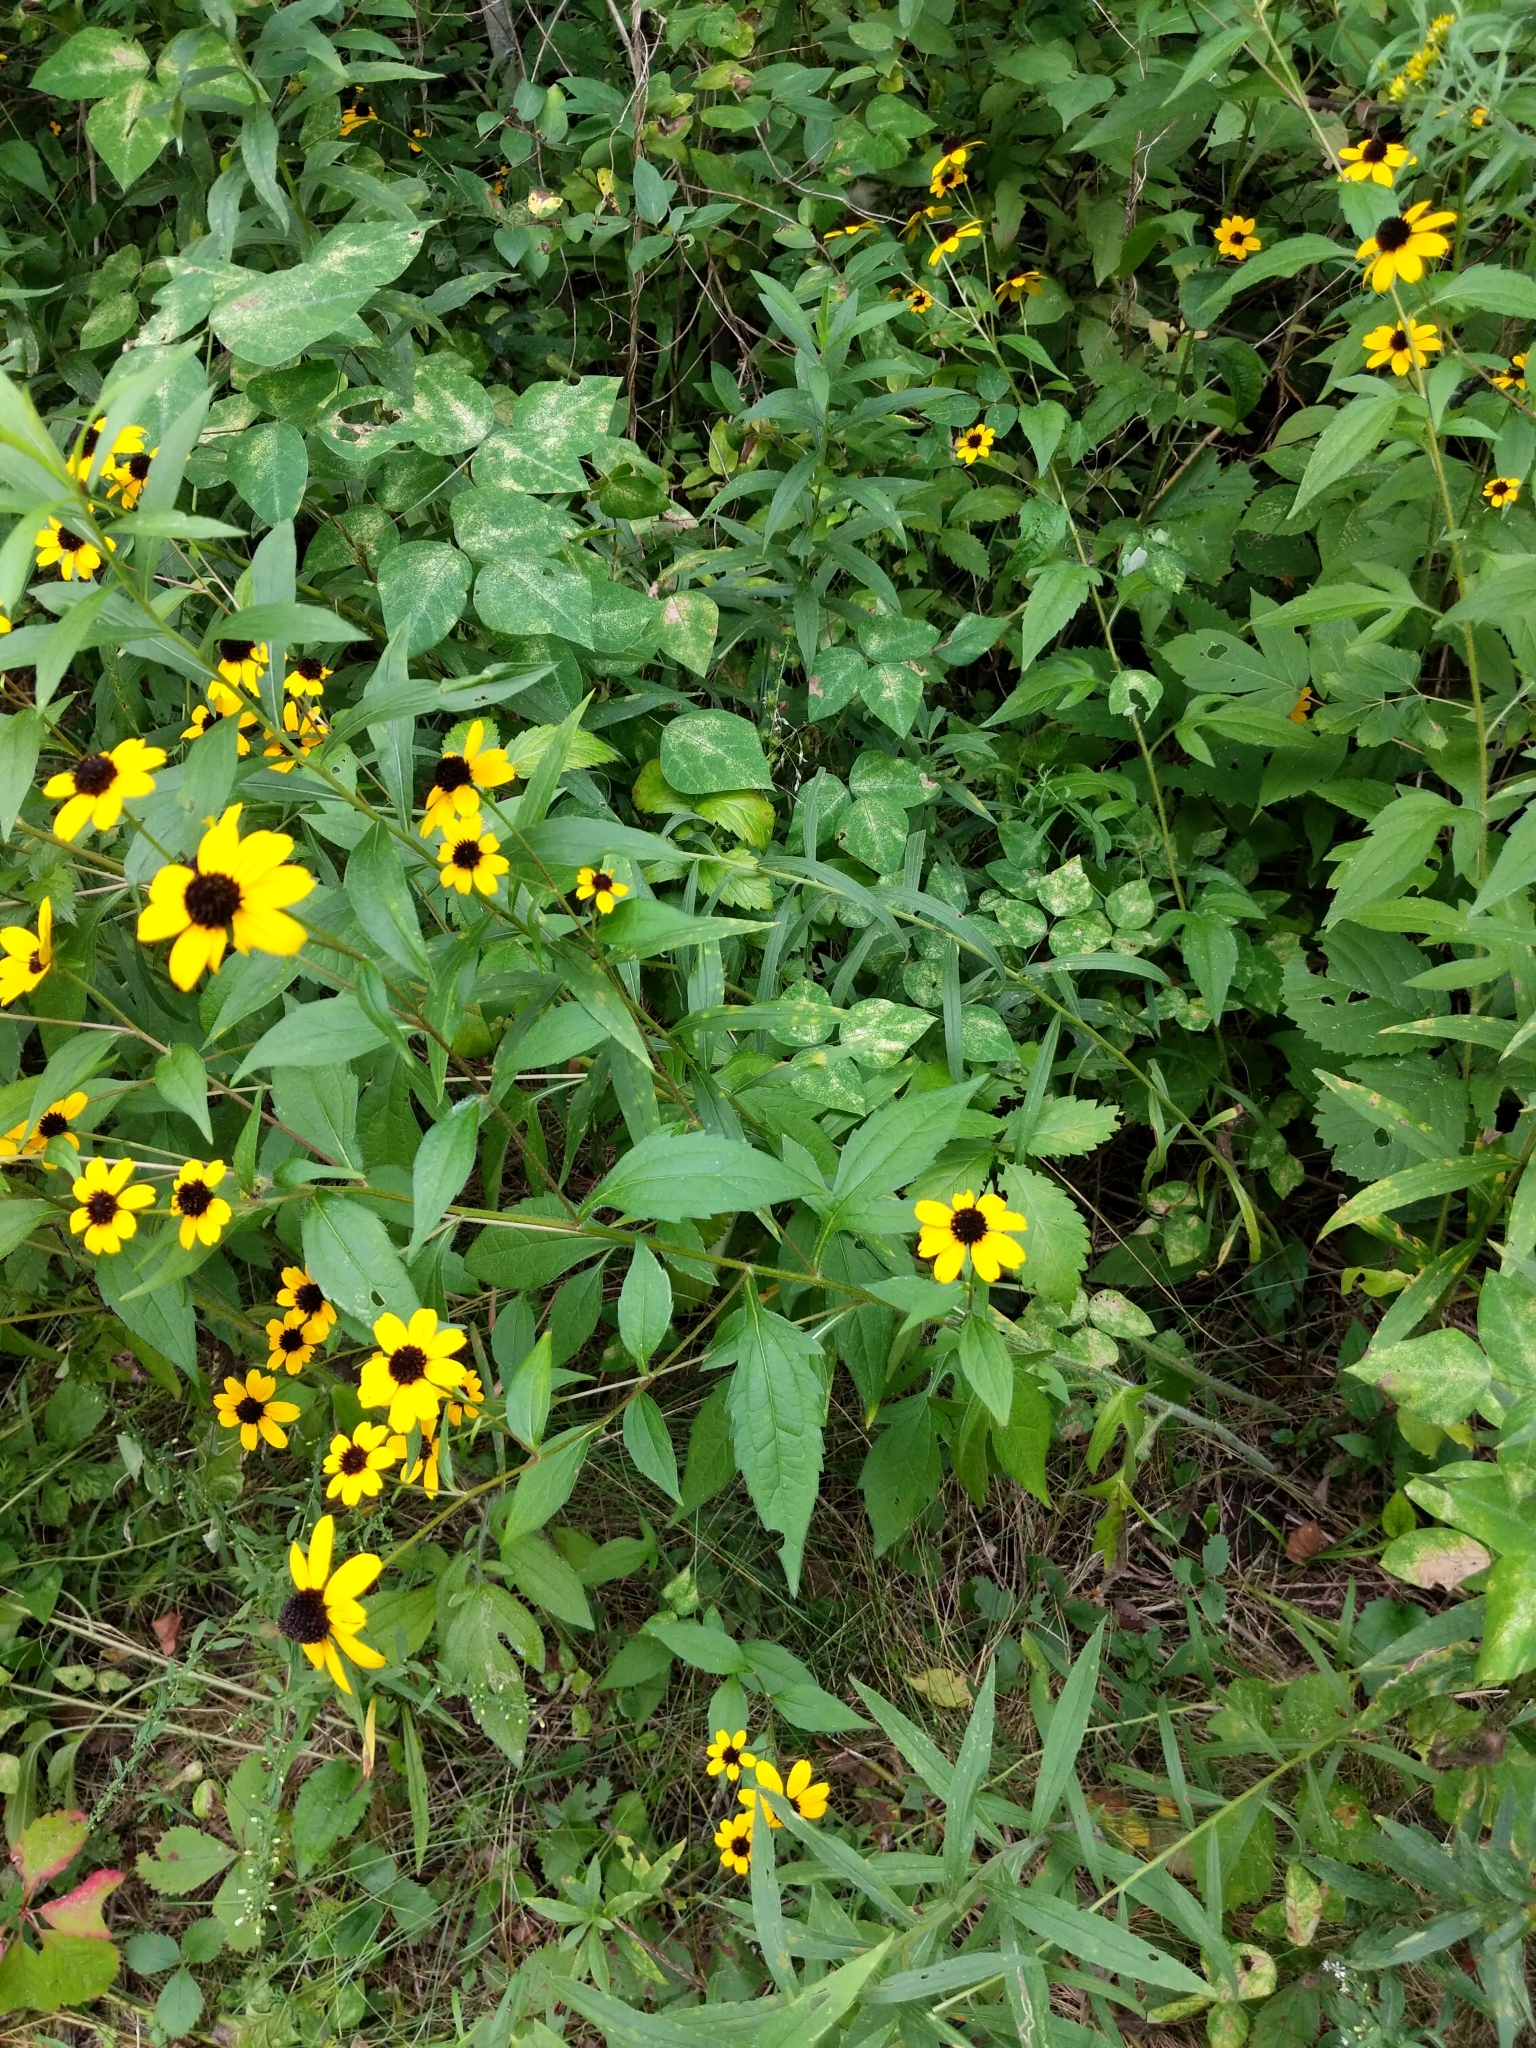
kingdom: Plantae
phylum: Tracheophyta
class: Magnoliopsida
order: Asterales
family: Asteraceae
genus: Rudbeckia
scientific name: Rudbeckia triloba
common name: Thin-leaved coneflower
